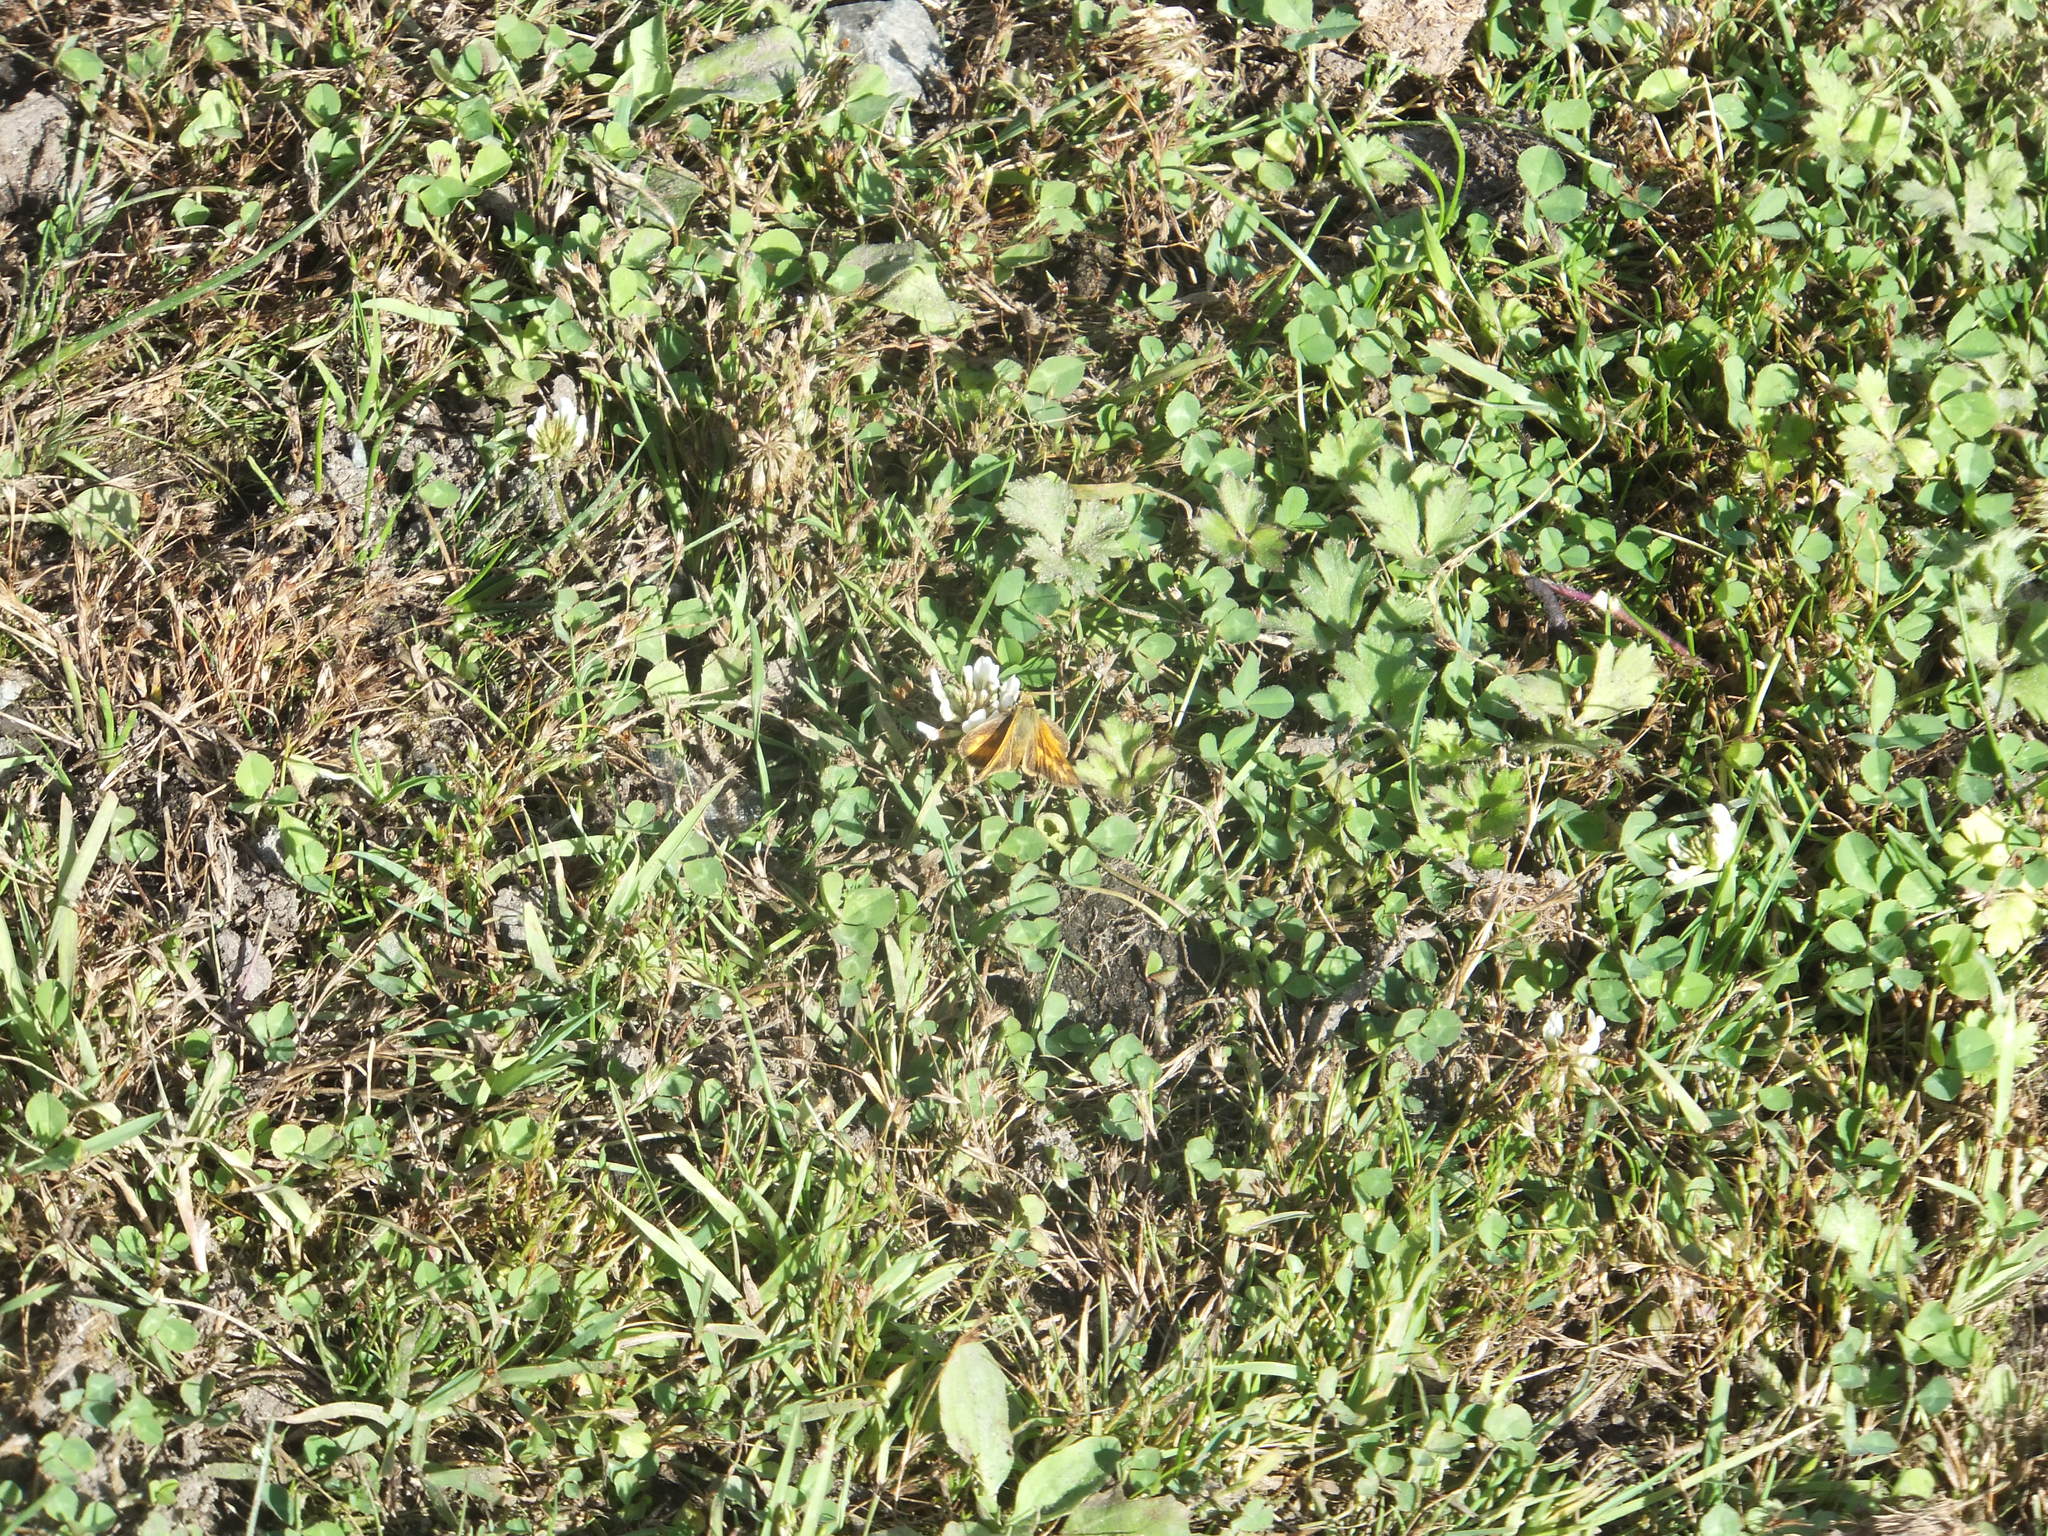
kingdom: Animalia
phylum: Arthropoda
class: Insecta
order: Lepidoptera
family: Hesperiidae
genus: Ochlodes
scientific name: Ochlodes sylvanoides
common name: Woodland skipper
